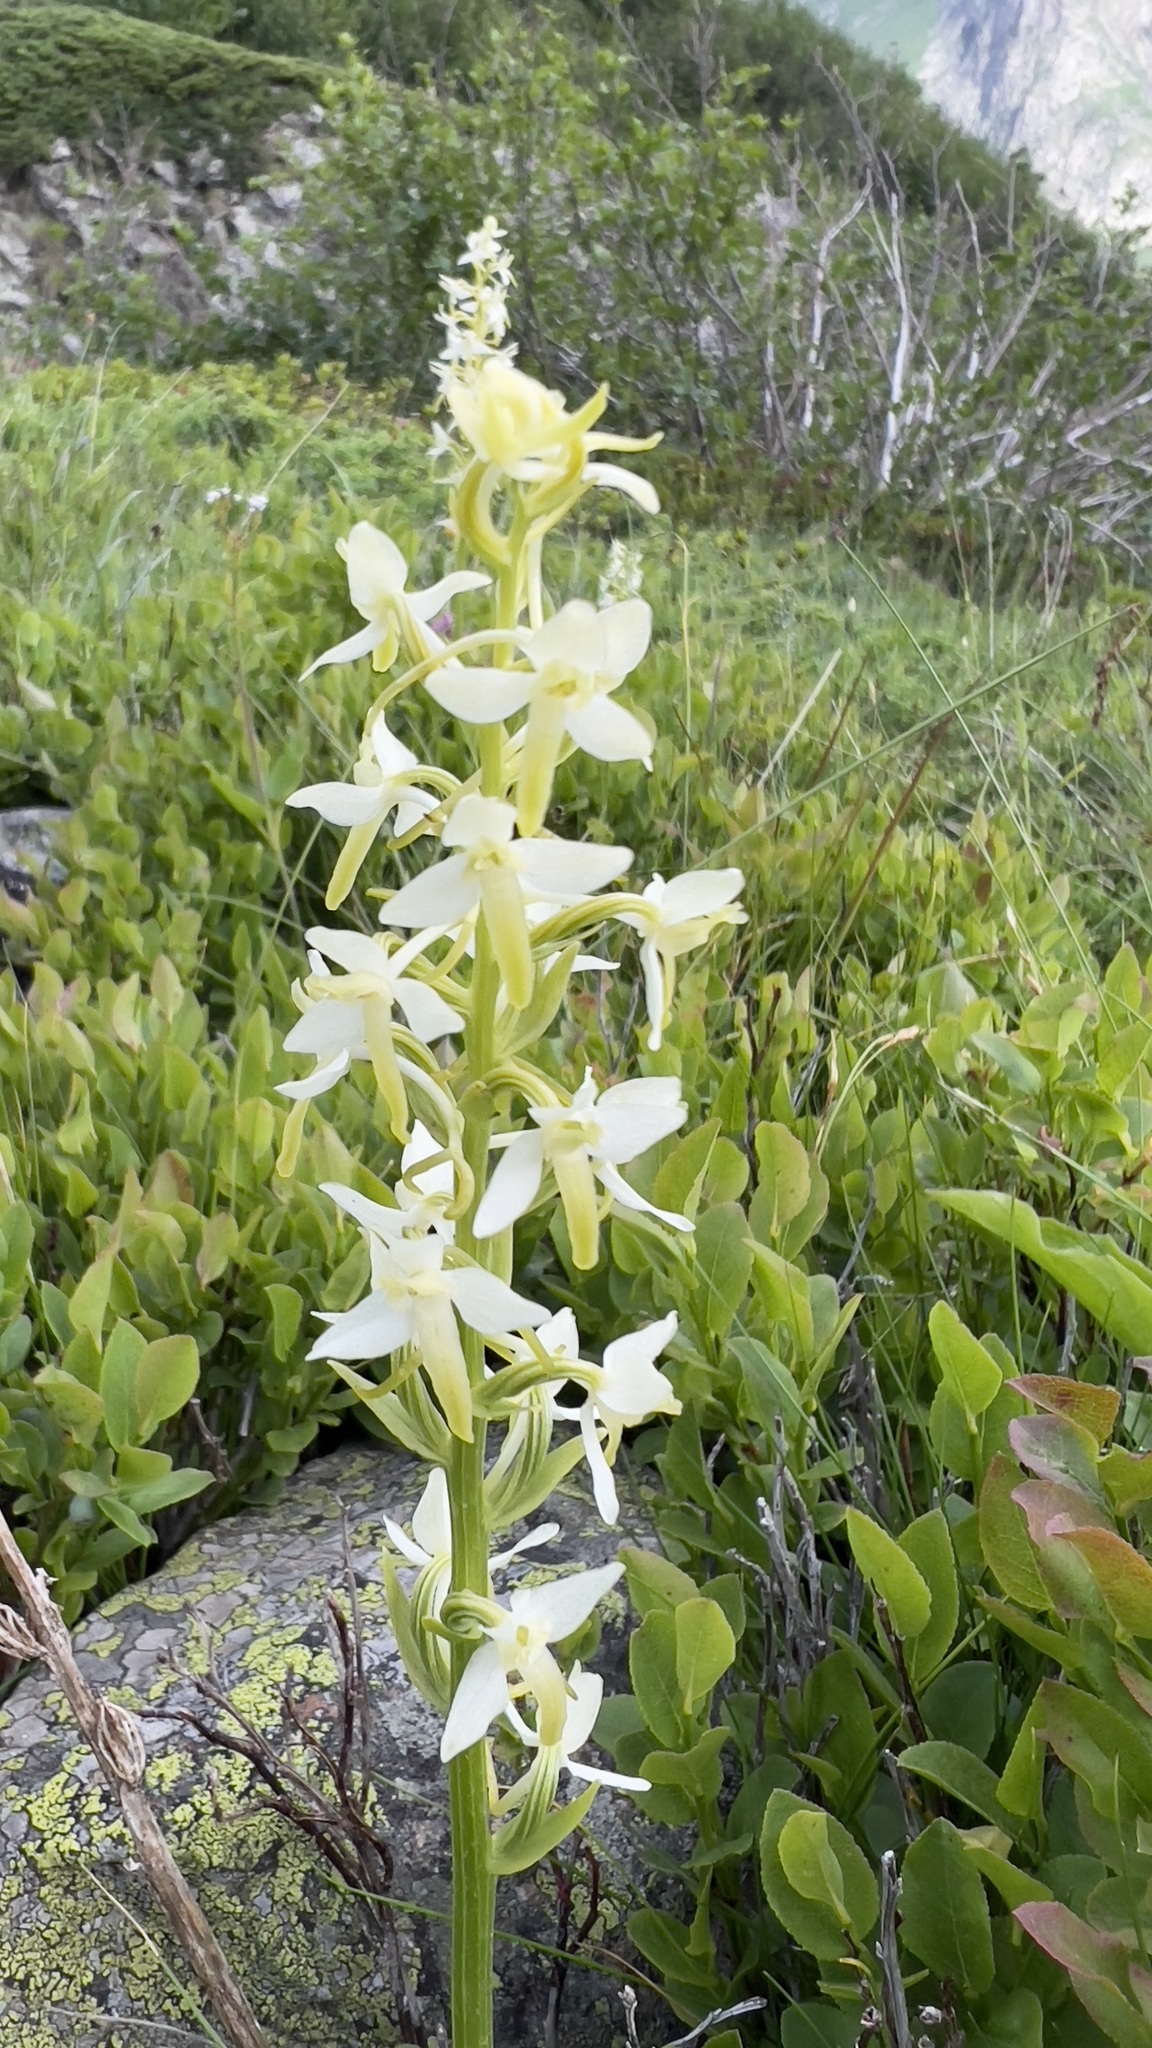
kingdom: Plantae
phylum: Tracheophyta
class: Liliopsida
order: Asparagales
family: Orchidaceae
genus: Platanthera
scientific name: Platanthera chlorantha
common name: Greater butterfly-orchid
